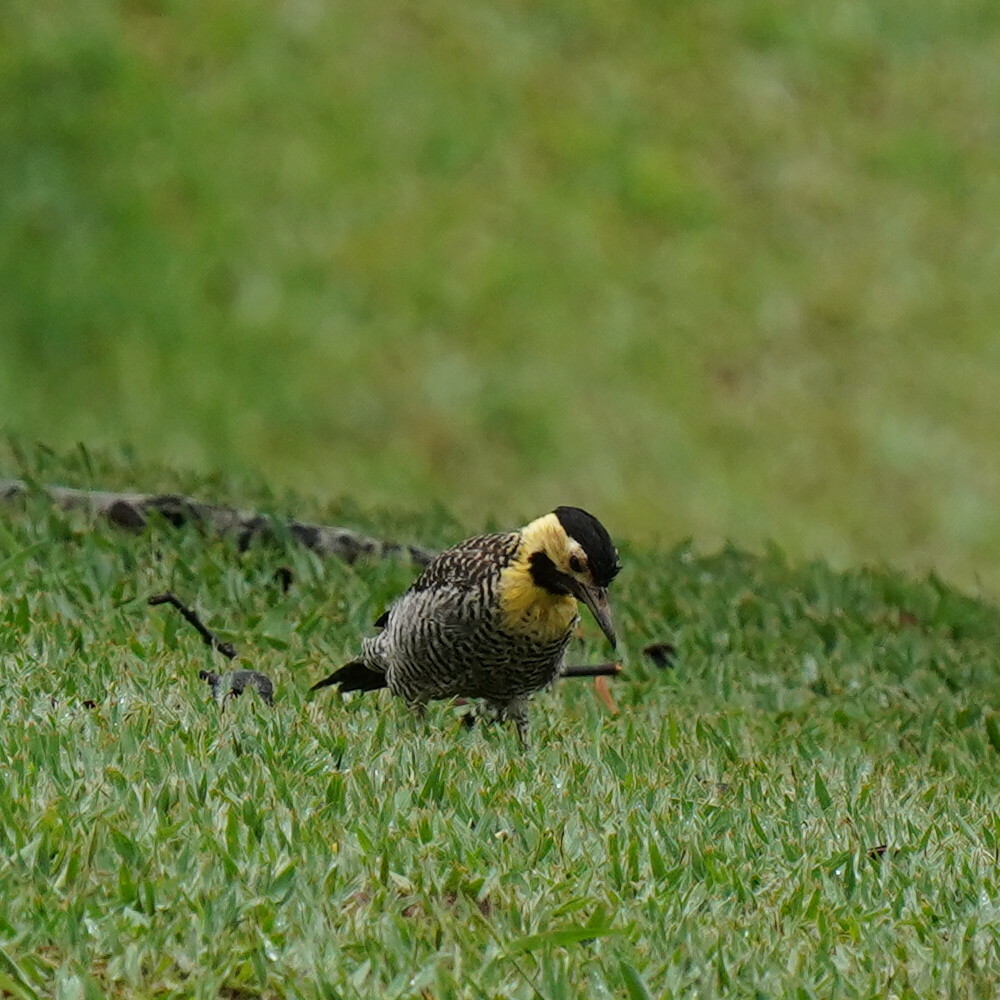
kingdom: Animalia
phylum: Chordata
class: Aves
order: Piciformes
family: Picidae
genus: Colaptes
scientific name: Colaptes campestris
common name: Campo flicker
